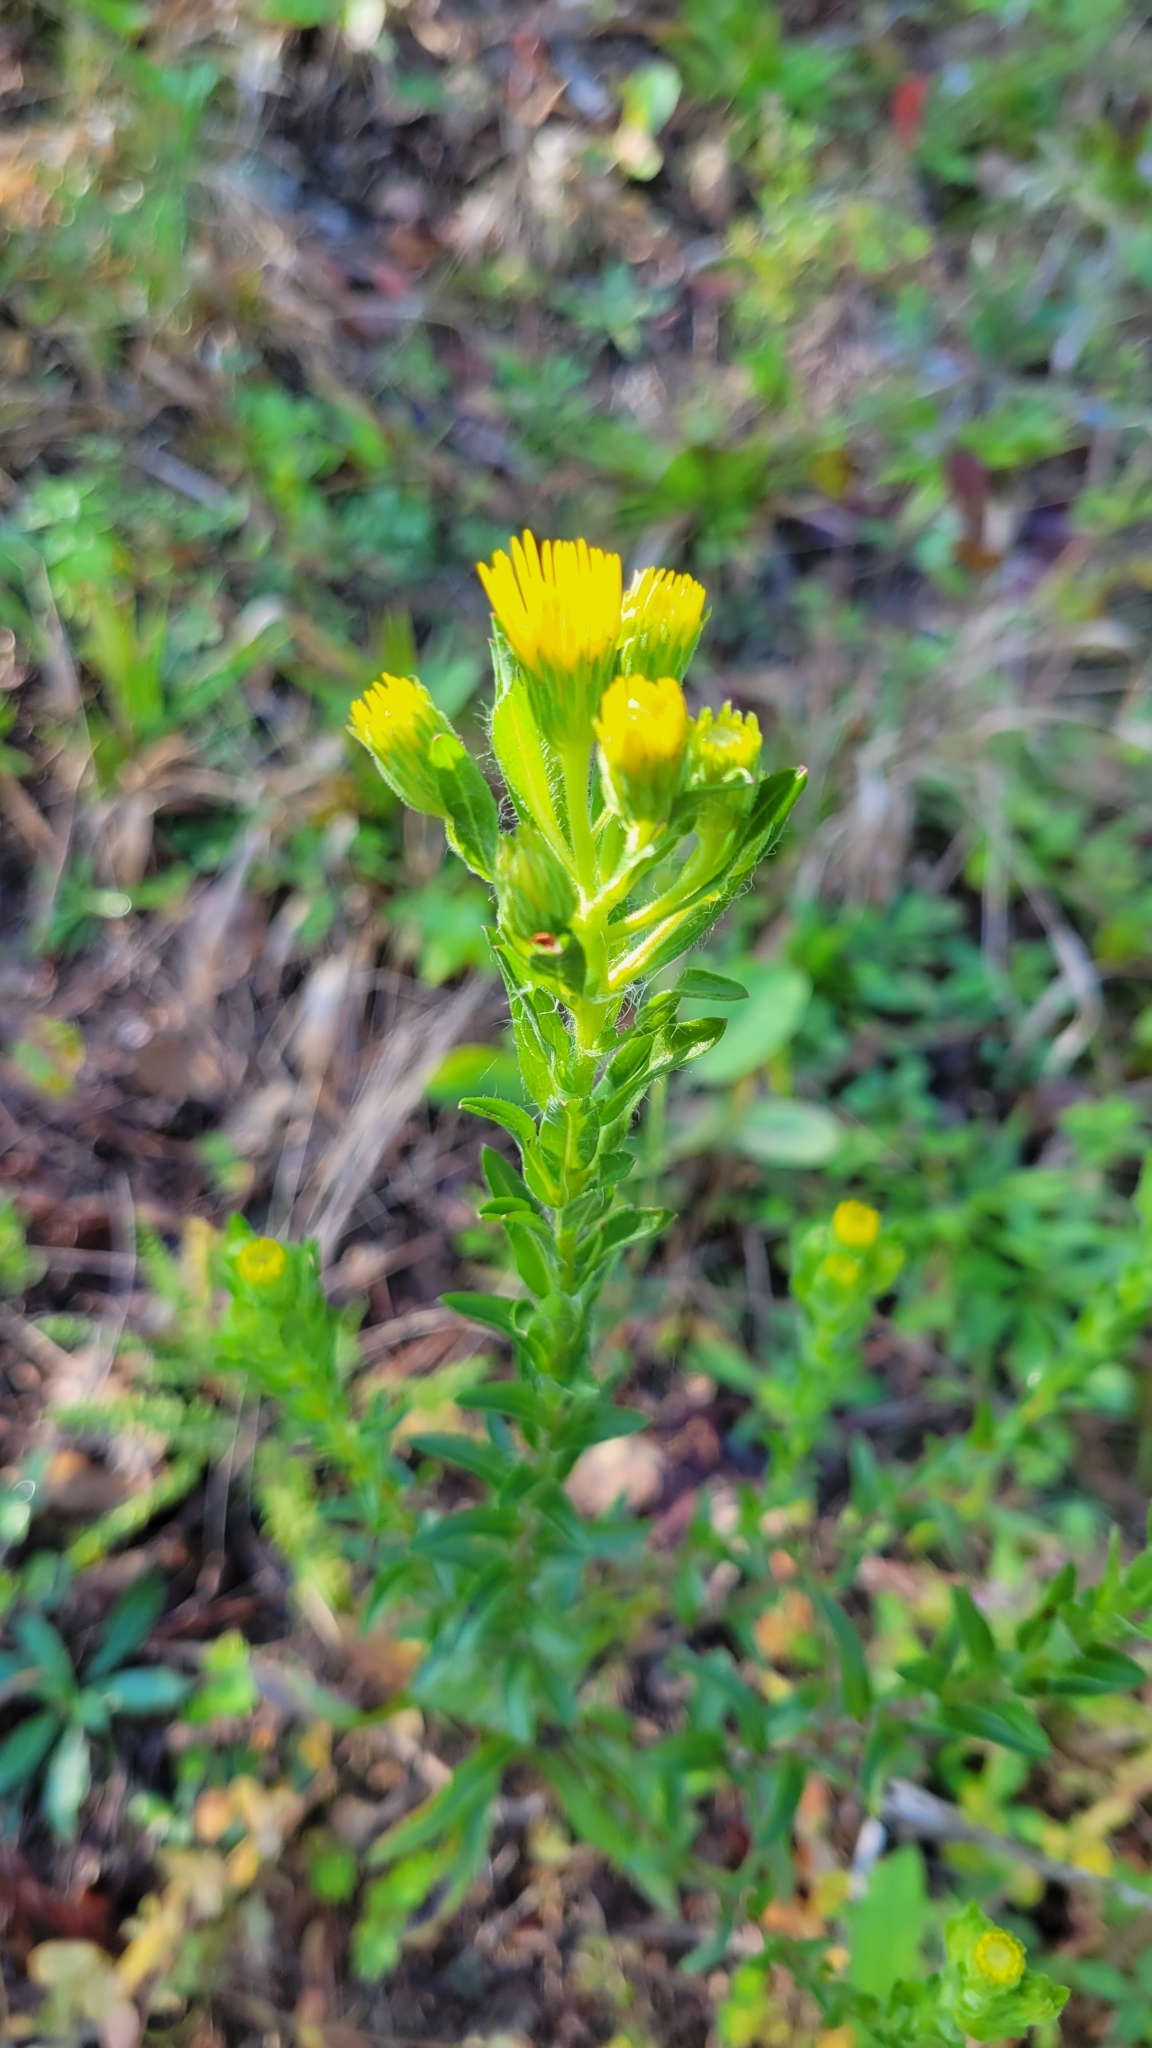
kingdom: Plantae
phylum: Tracheophyta
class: Magnoliopsida
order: Asterales
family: Asteraceae
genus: Chrysopsis
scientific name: Chrysopsis mariana
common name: Maryland golden-aster
